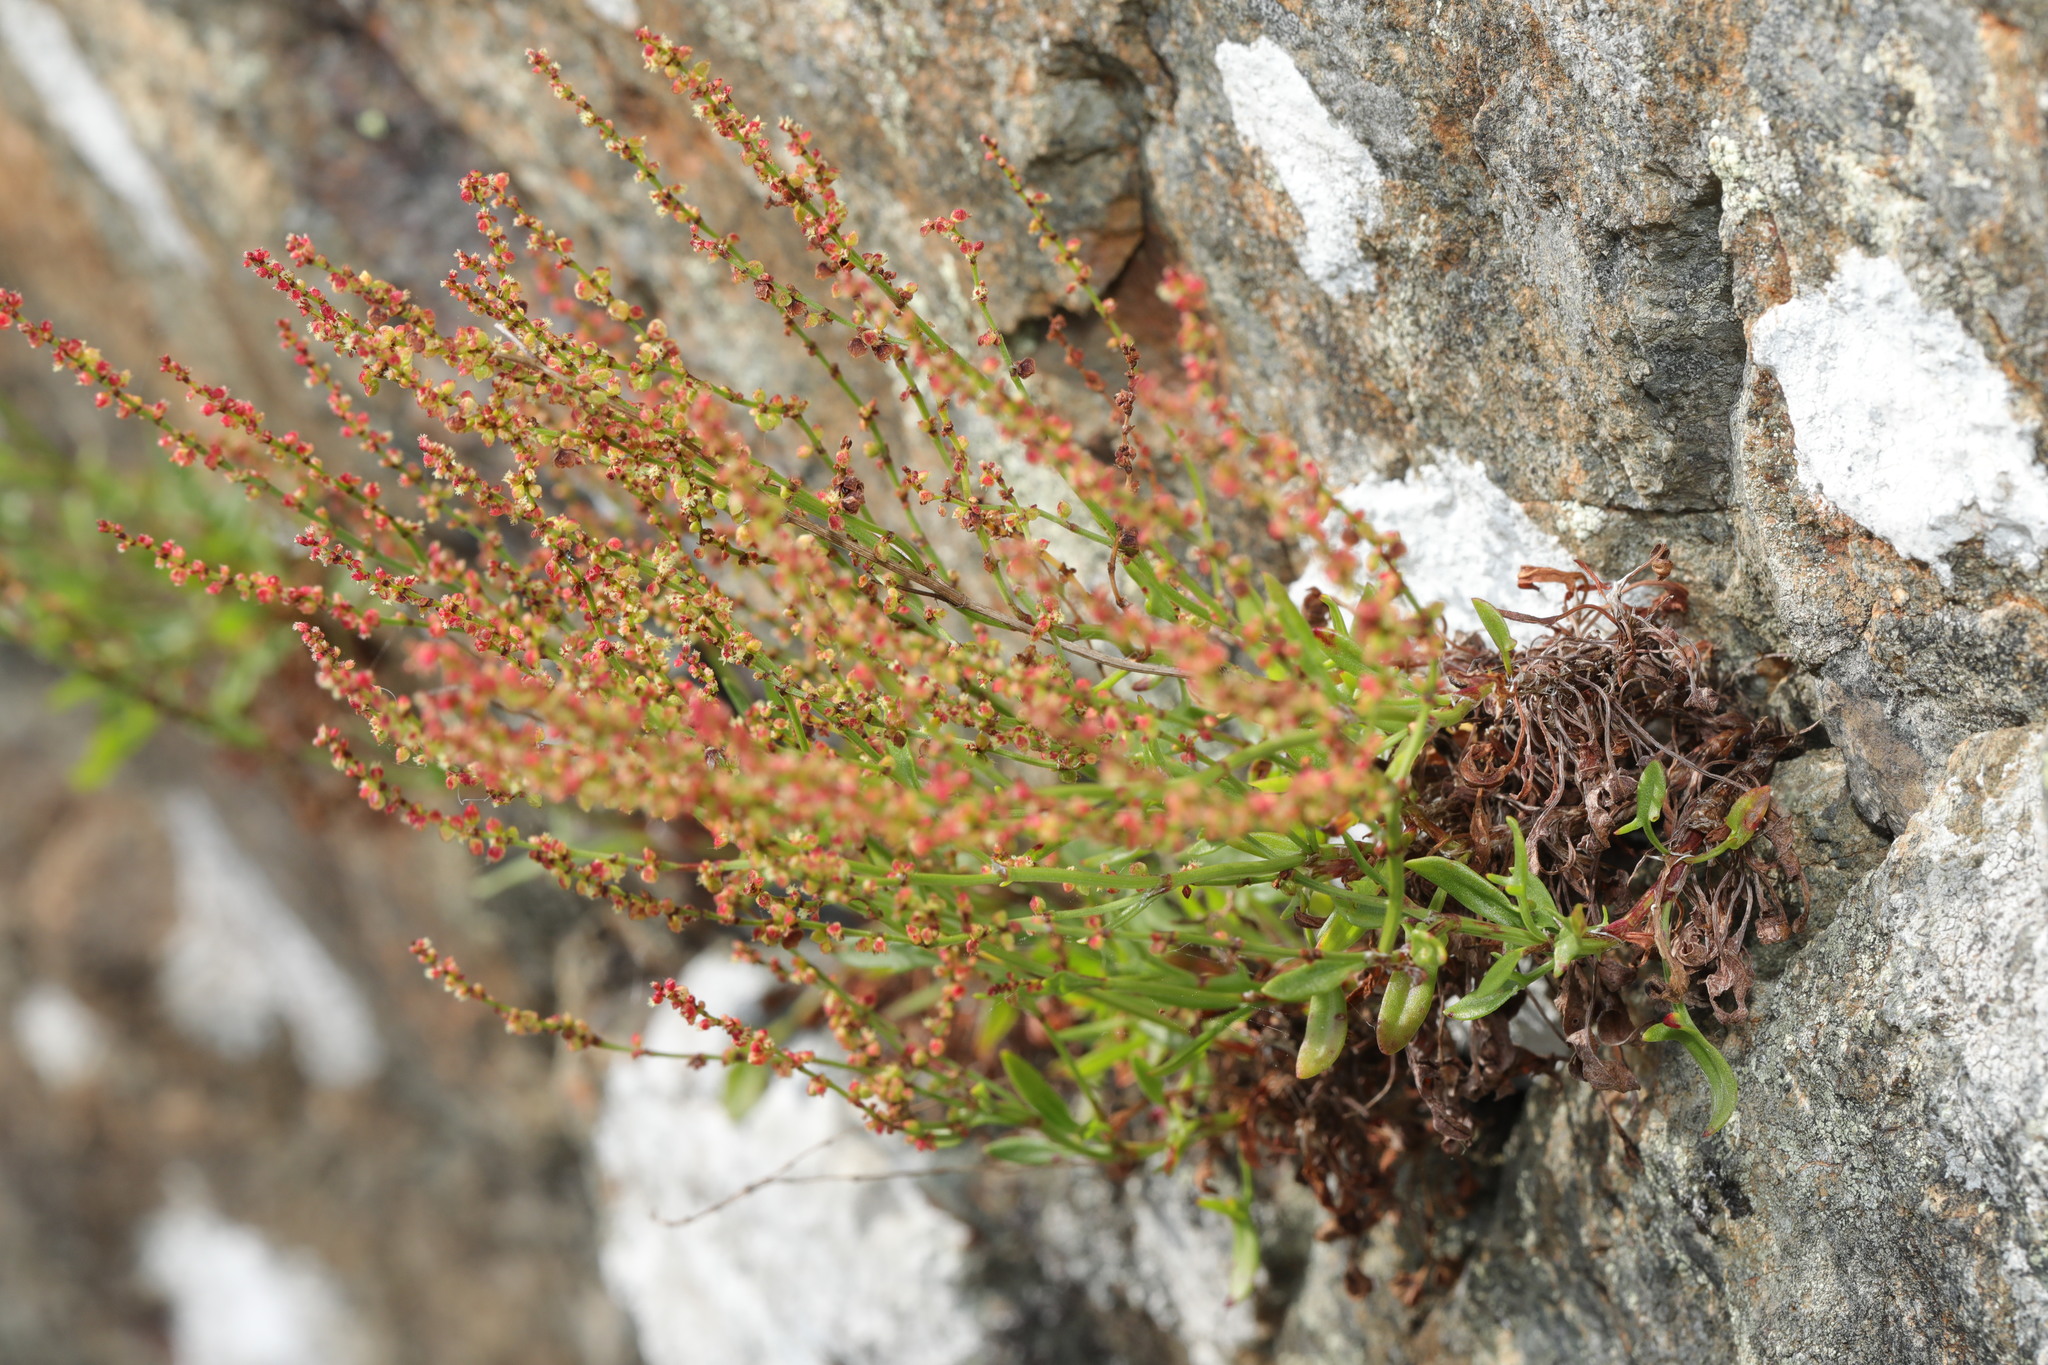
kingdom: Plantae
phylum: Tracheophyta
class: Magnoliopsida
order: Caryophyllales
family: Polygonaceae
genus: Rumex
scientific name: Rumex acetosella
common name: Common sheep sorrel
